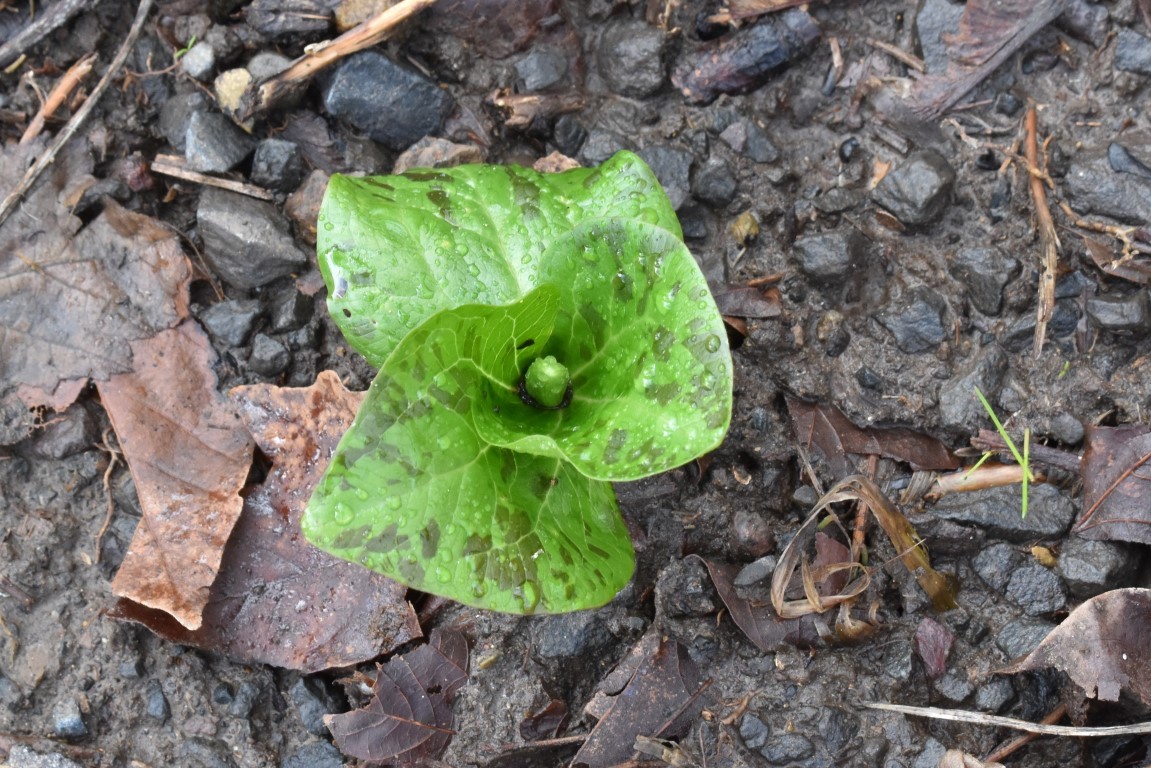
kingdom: Plantae
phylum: Tracheophyta
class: Liliopsida
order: Liliales
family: Melanthiaceae
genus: Trillium
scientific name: Trillium albidum
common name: Freeman's trillium
